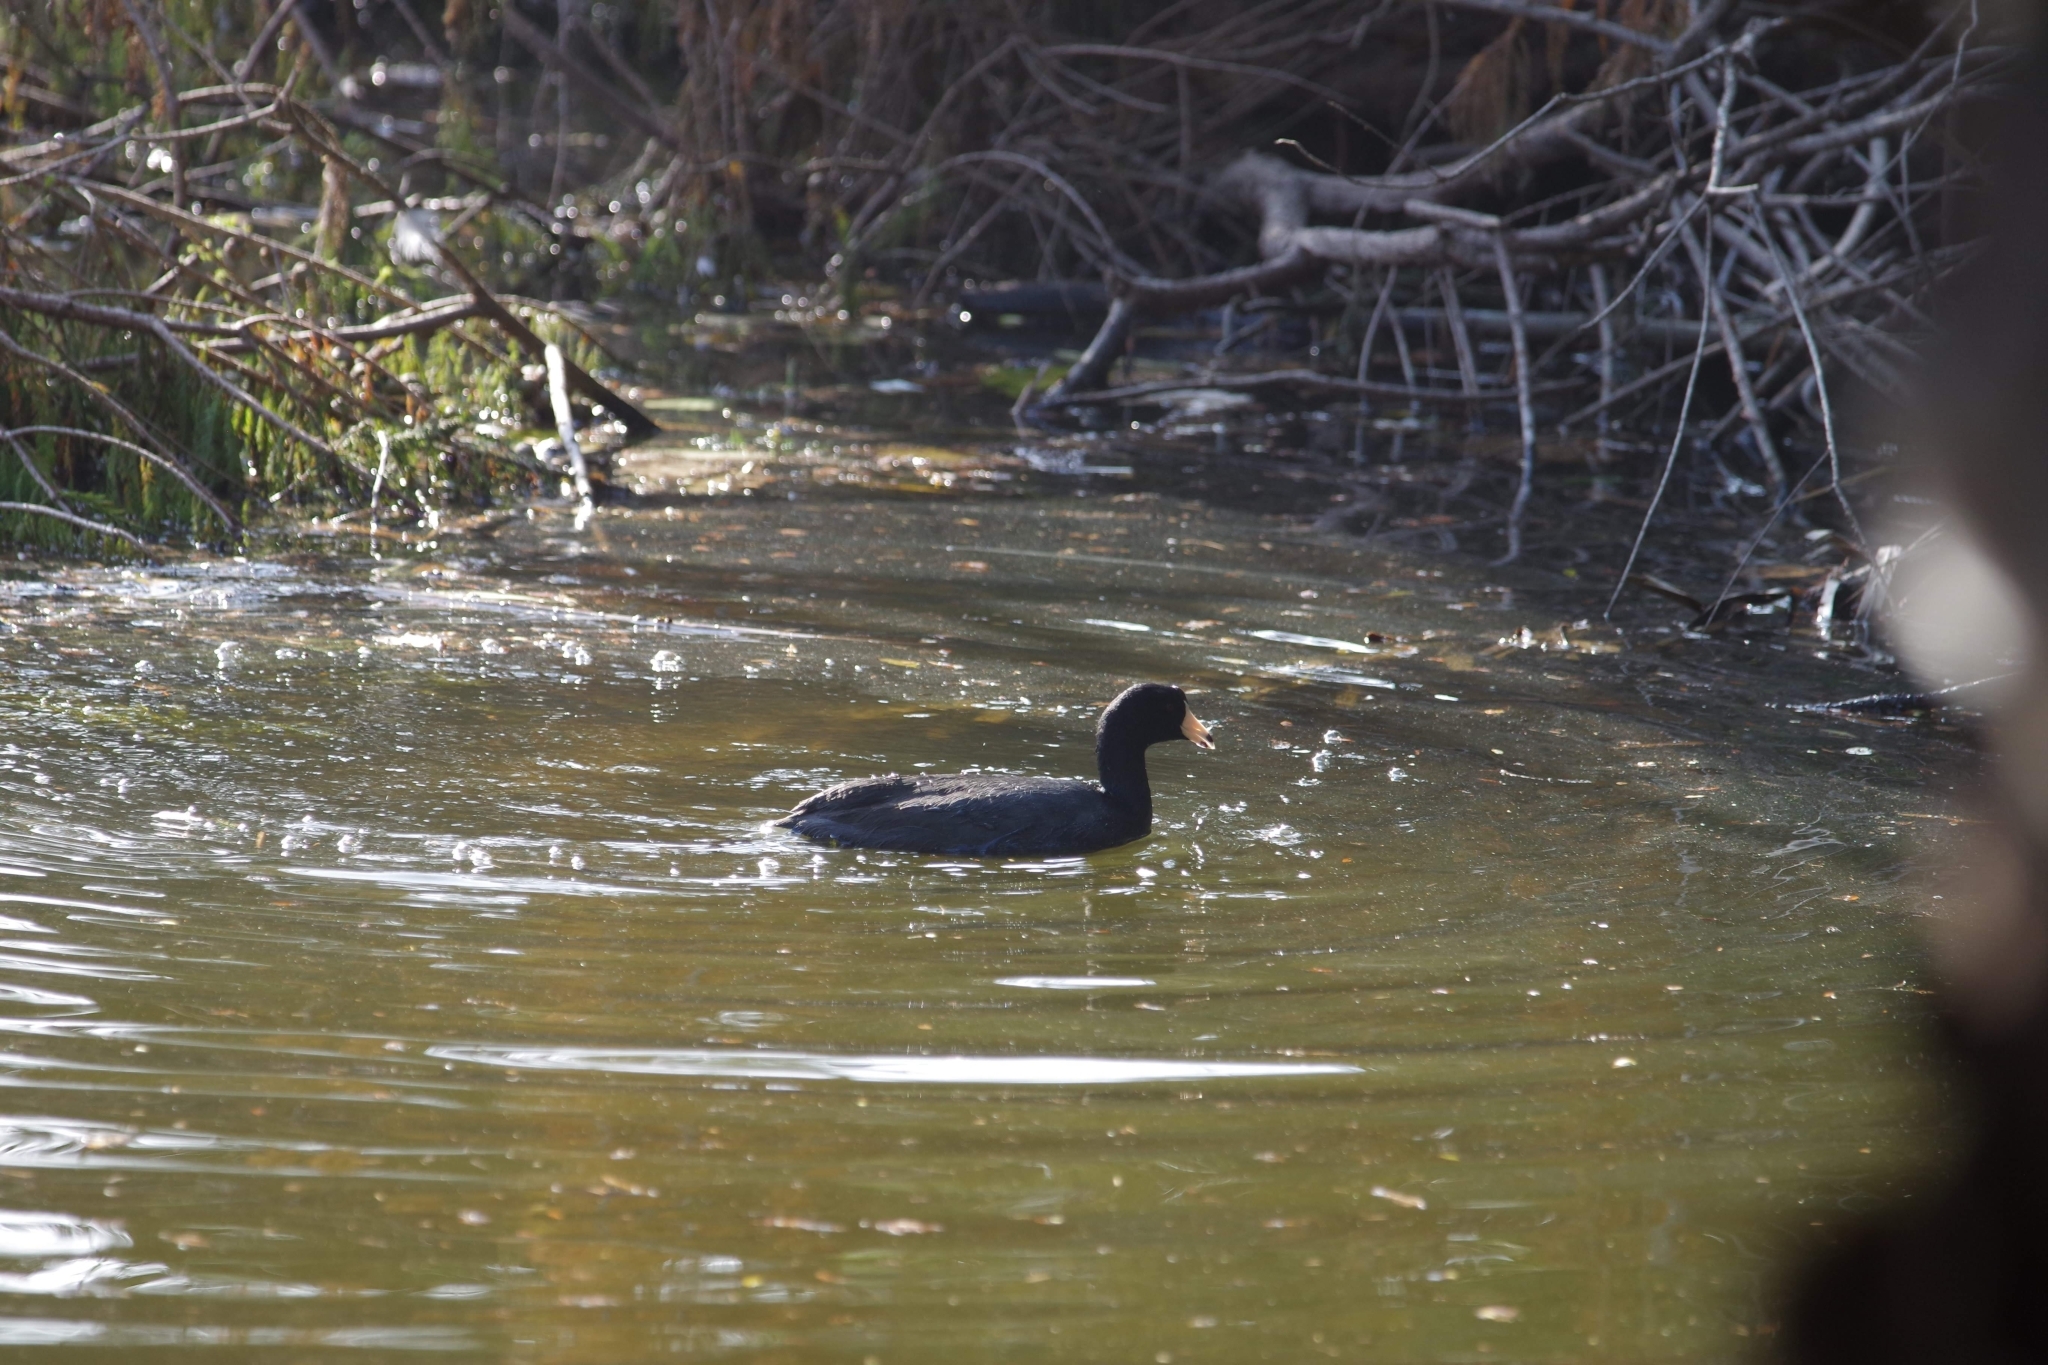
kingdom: Animalia
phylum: Chordata
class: Aves
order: Gruiformes
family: Rallidae
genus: Fulica
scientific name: Fulica americana
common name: American coot
